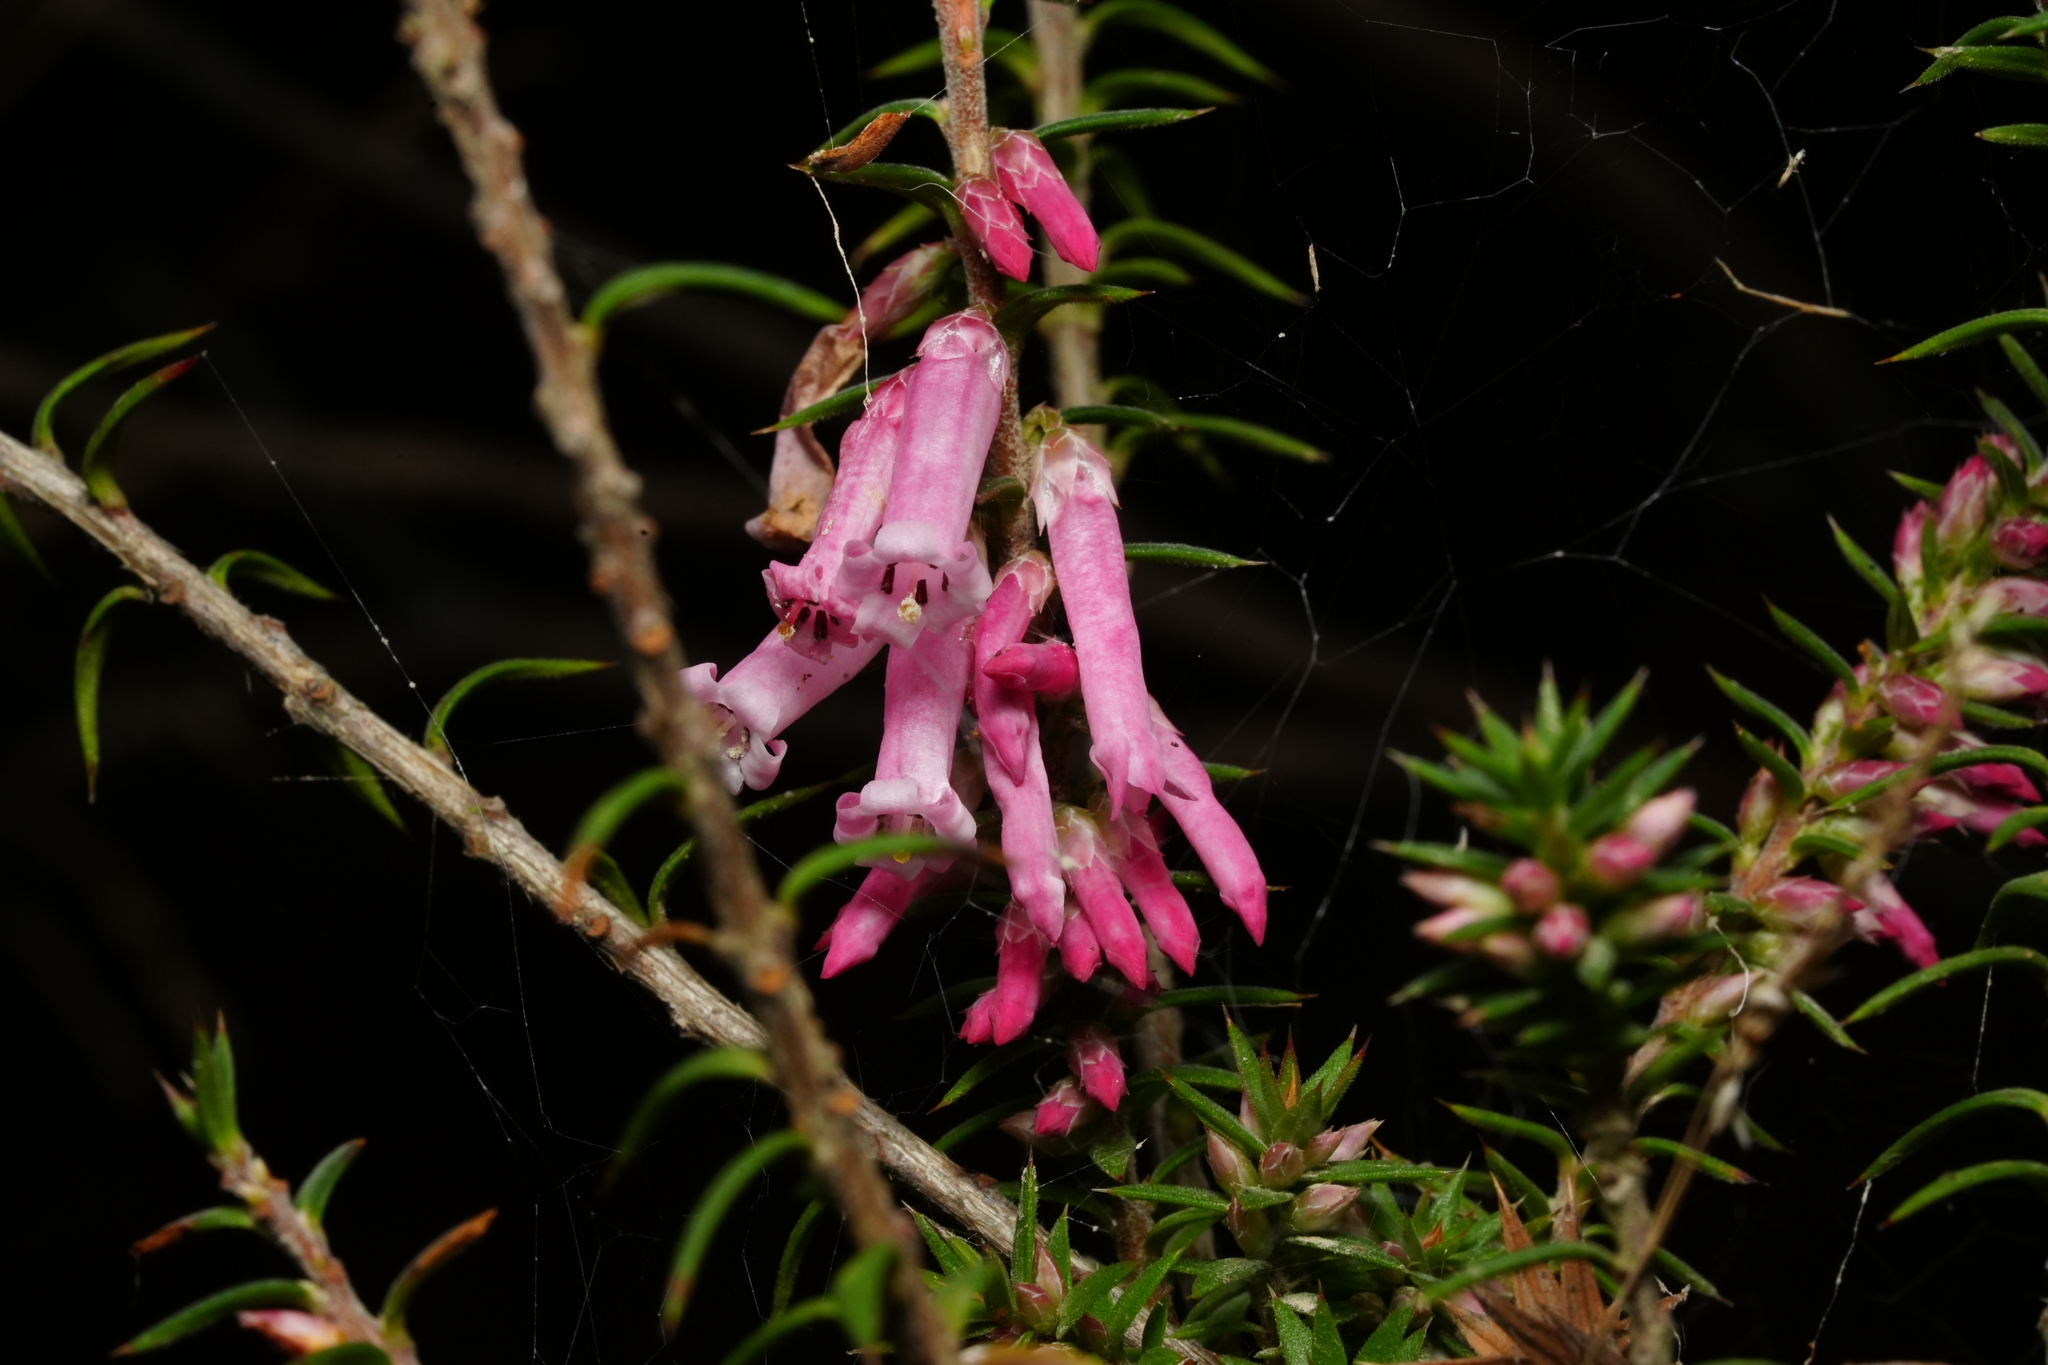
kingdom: Plantae
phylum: Tracheophyta
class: Magnoliopsida
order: Ericales
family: Ericaceae
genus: Epacris
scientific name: Epacris impressa
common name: Common-heath
